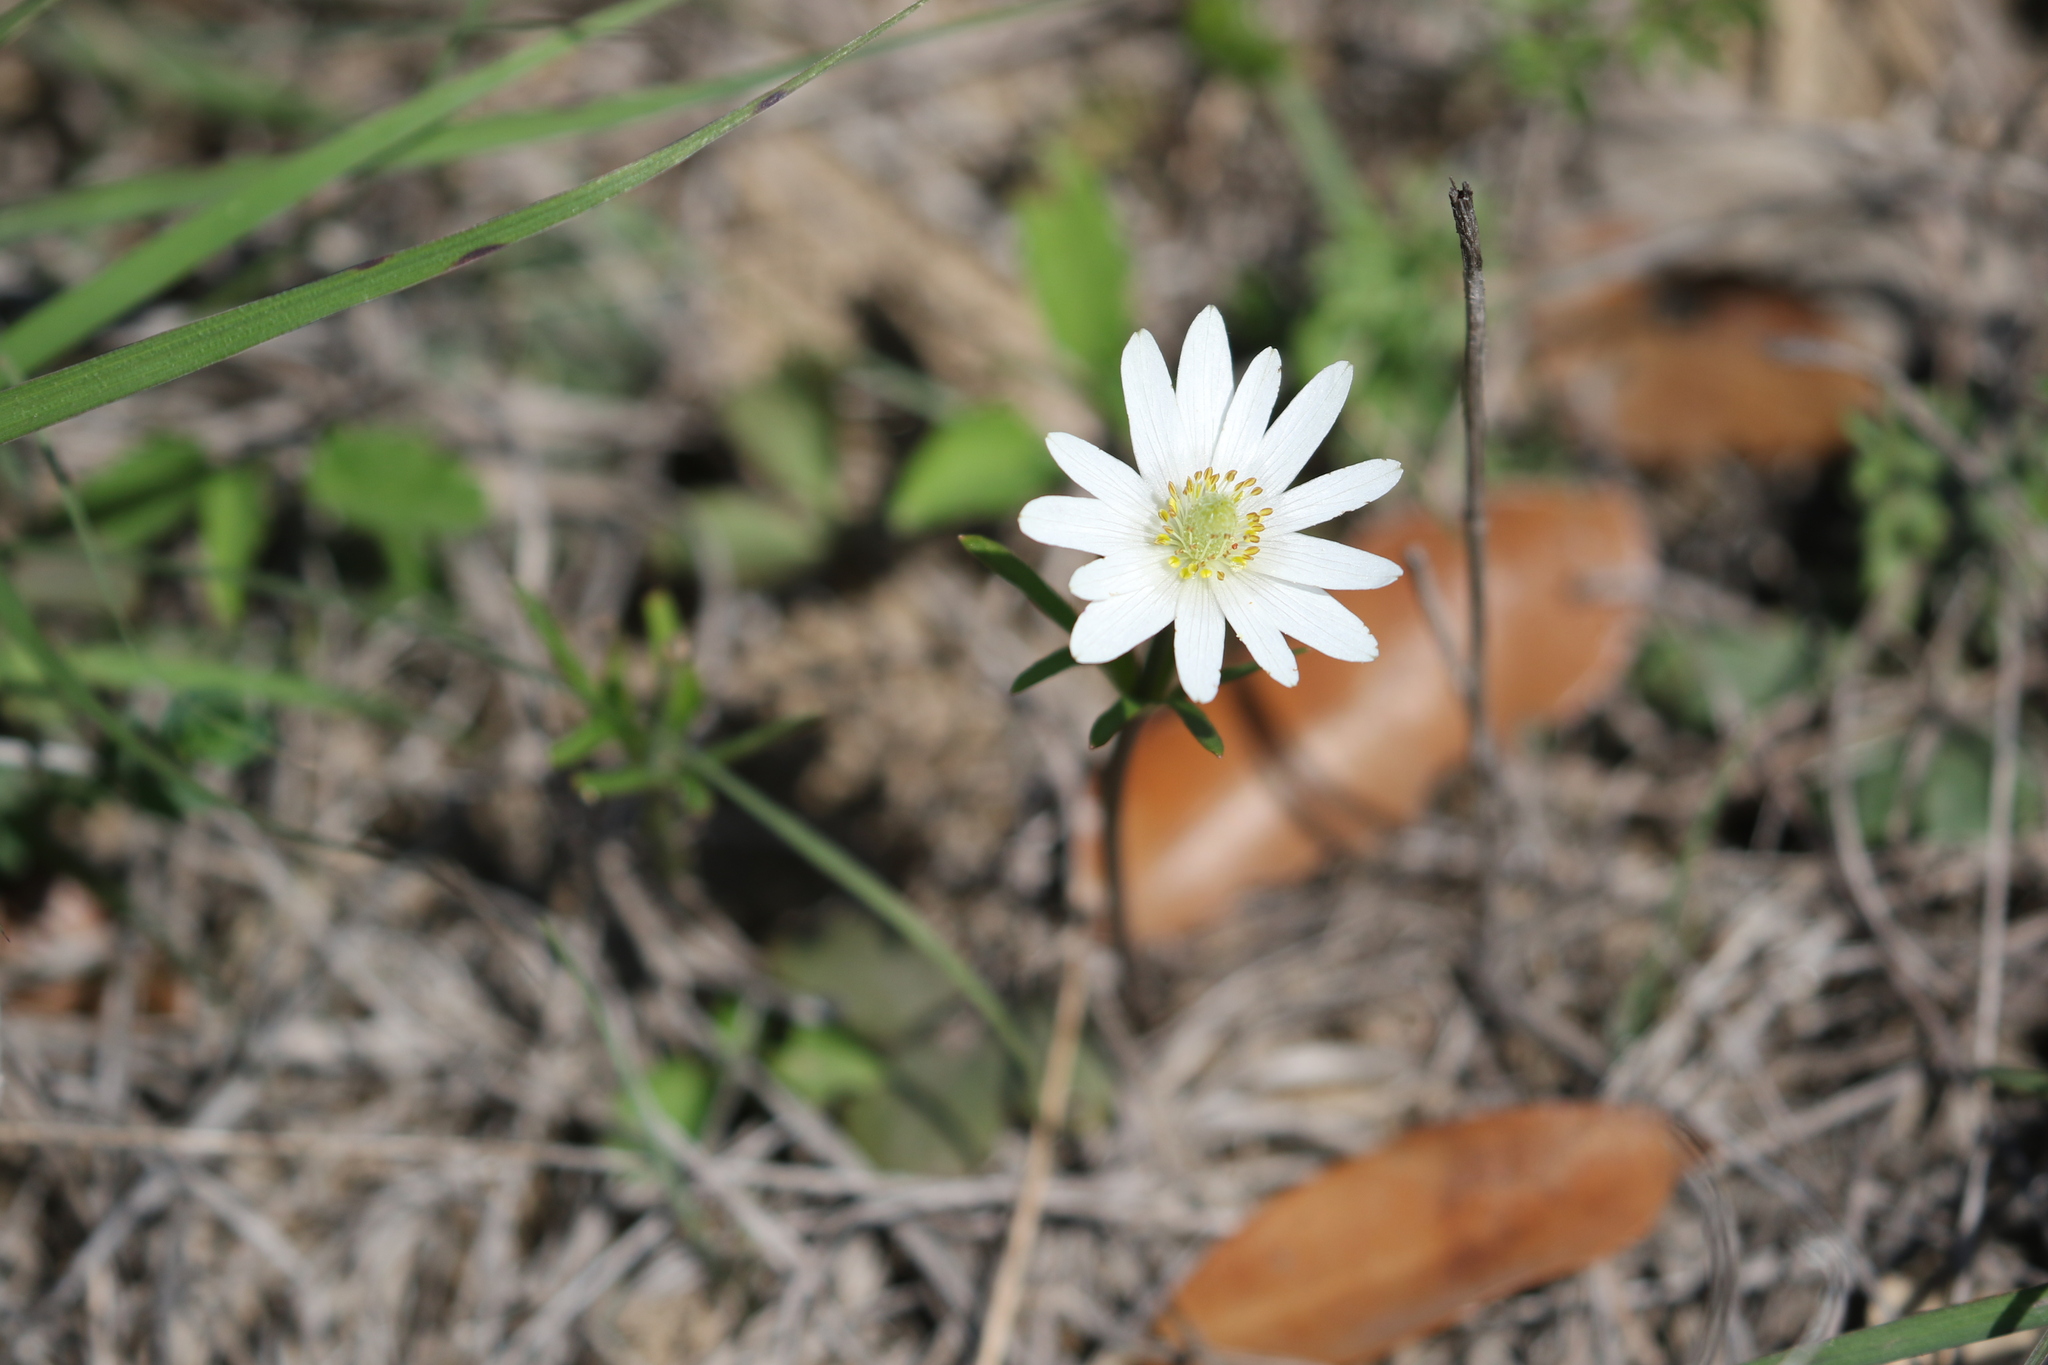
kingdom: Plantae
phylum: Tracheophyta
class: Magnoliopsida
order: Ranunculales
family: Ranunculaceae
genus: Anemone
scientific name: Anemone berlandieri
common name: Ten-petal anemone
